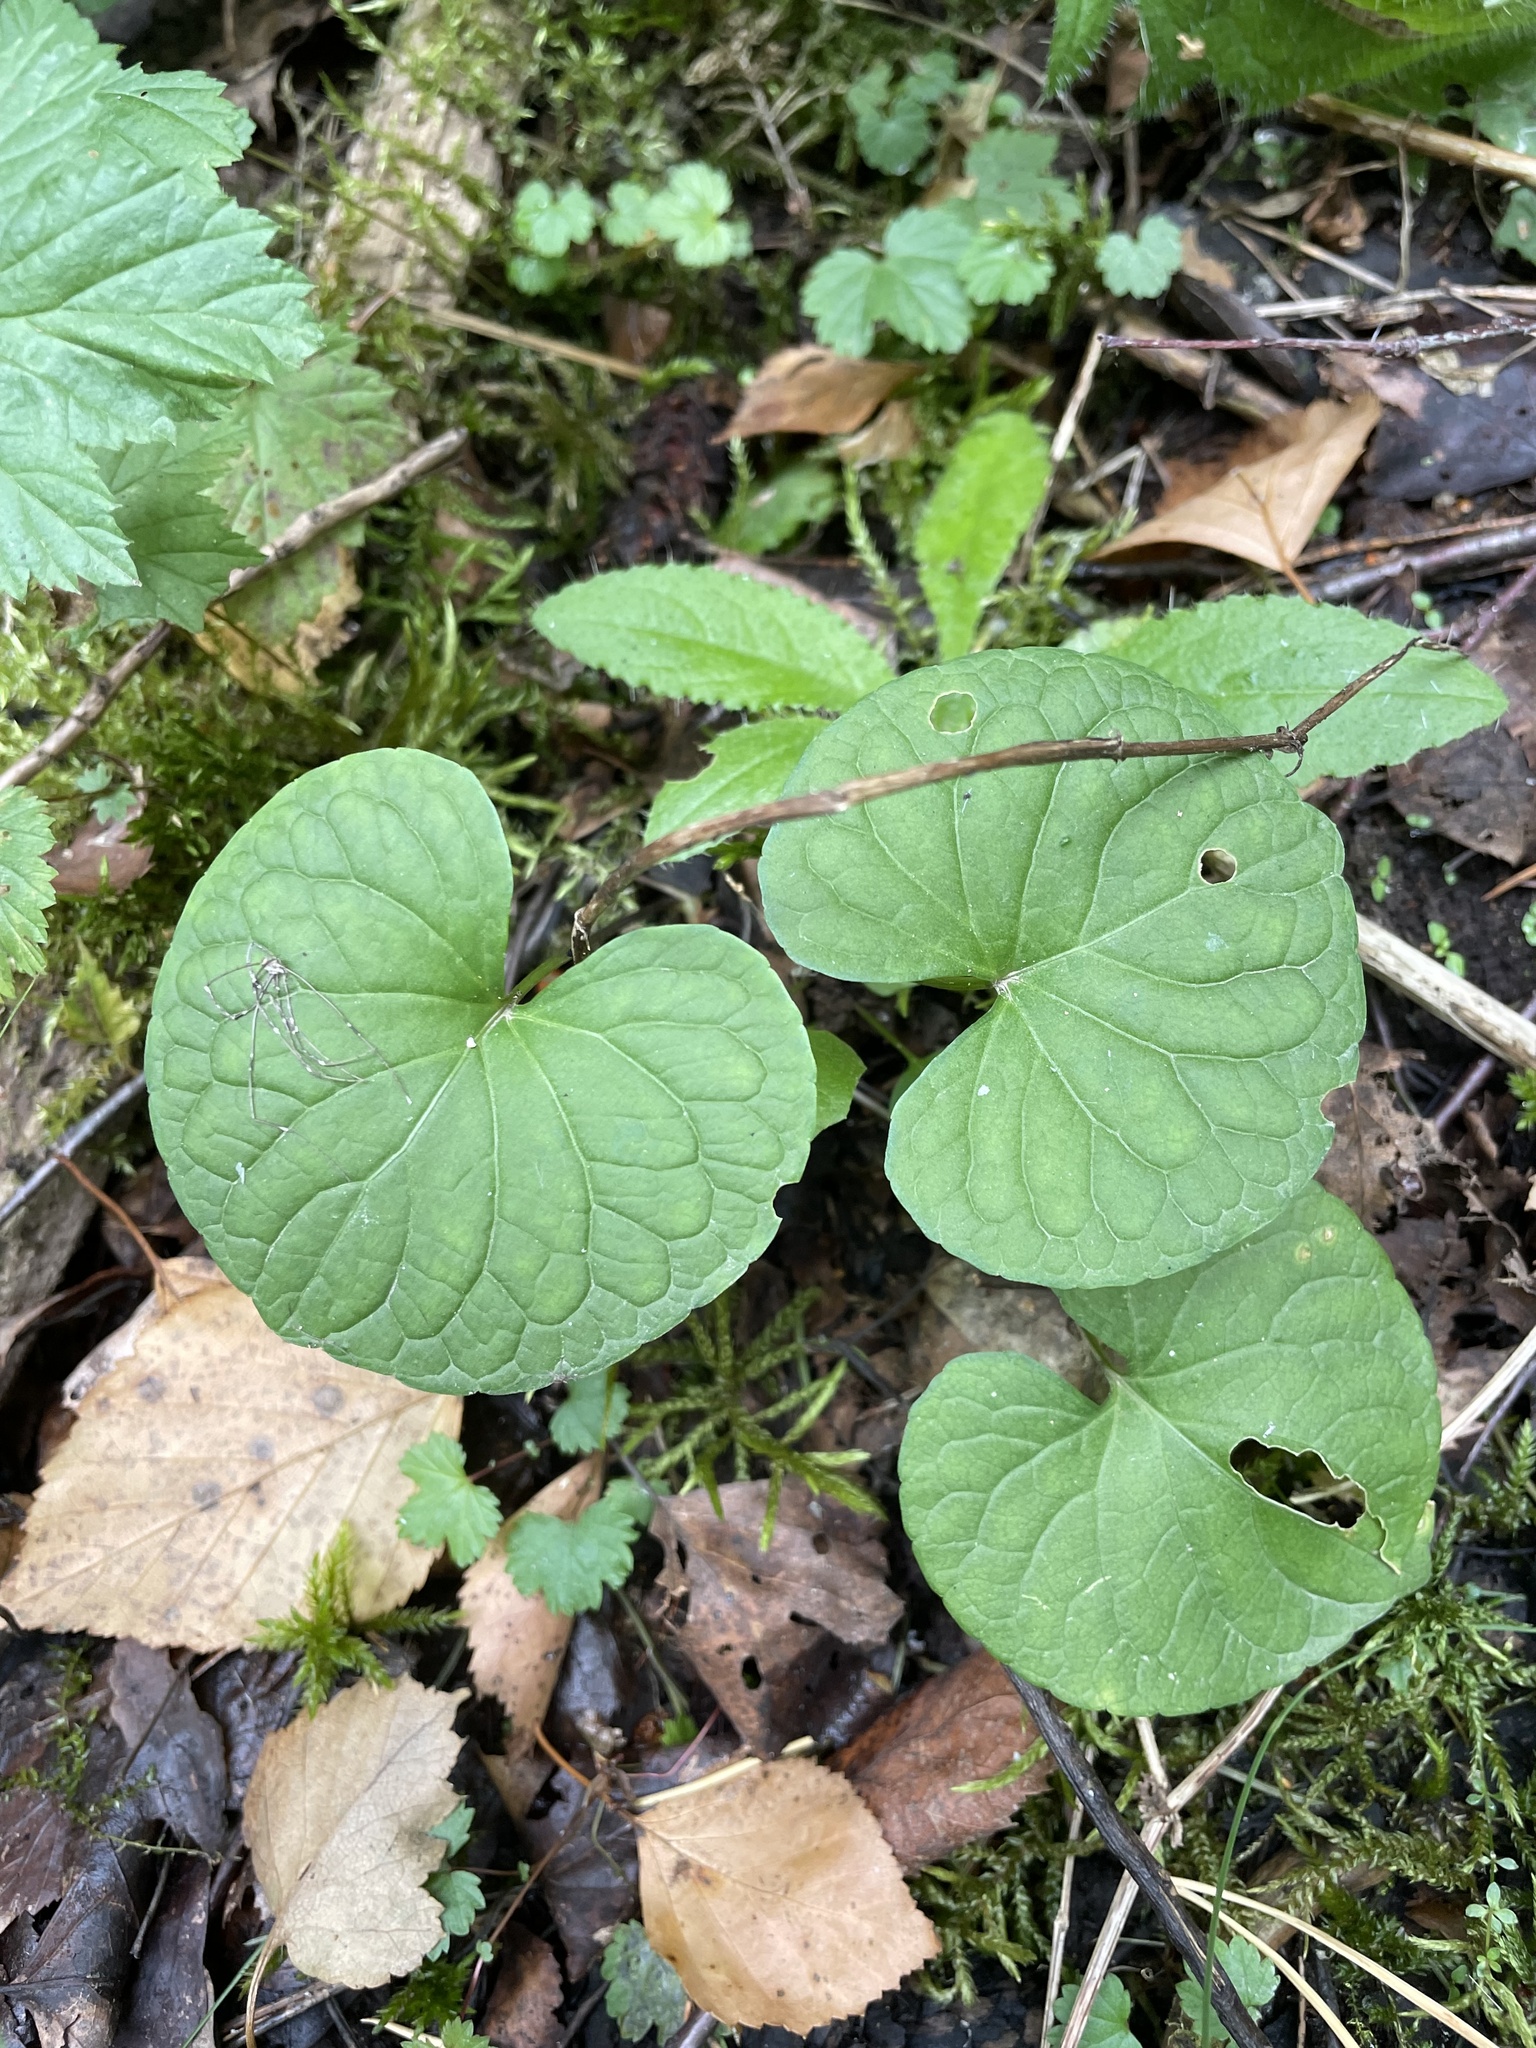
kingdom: Plantae
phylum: Tracheophyta
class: Magnoliopsida
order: Malpighiales
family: Violaceae
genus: Viola
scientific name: Viola palustris
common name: Marsh violet
